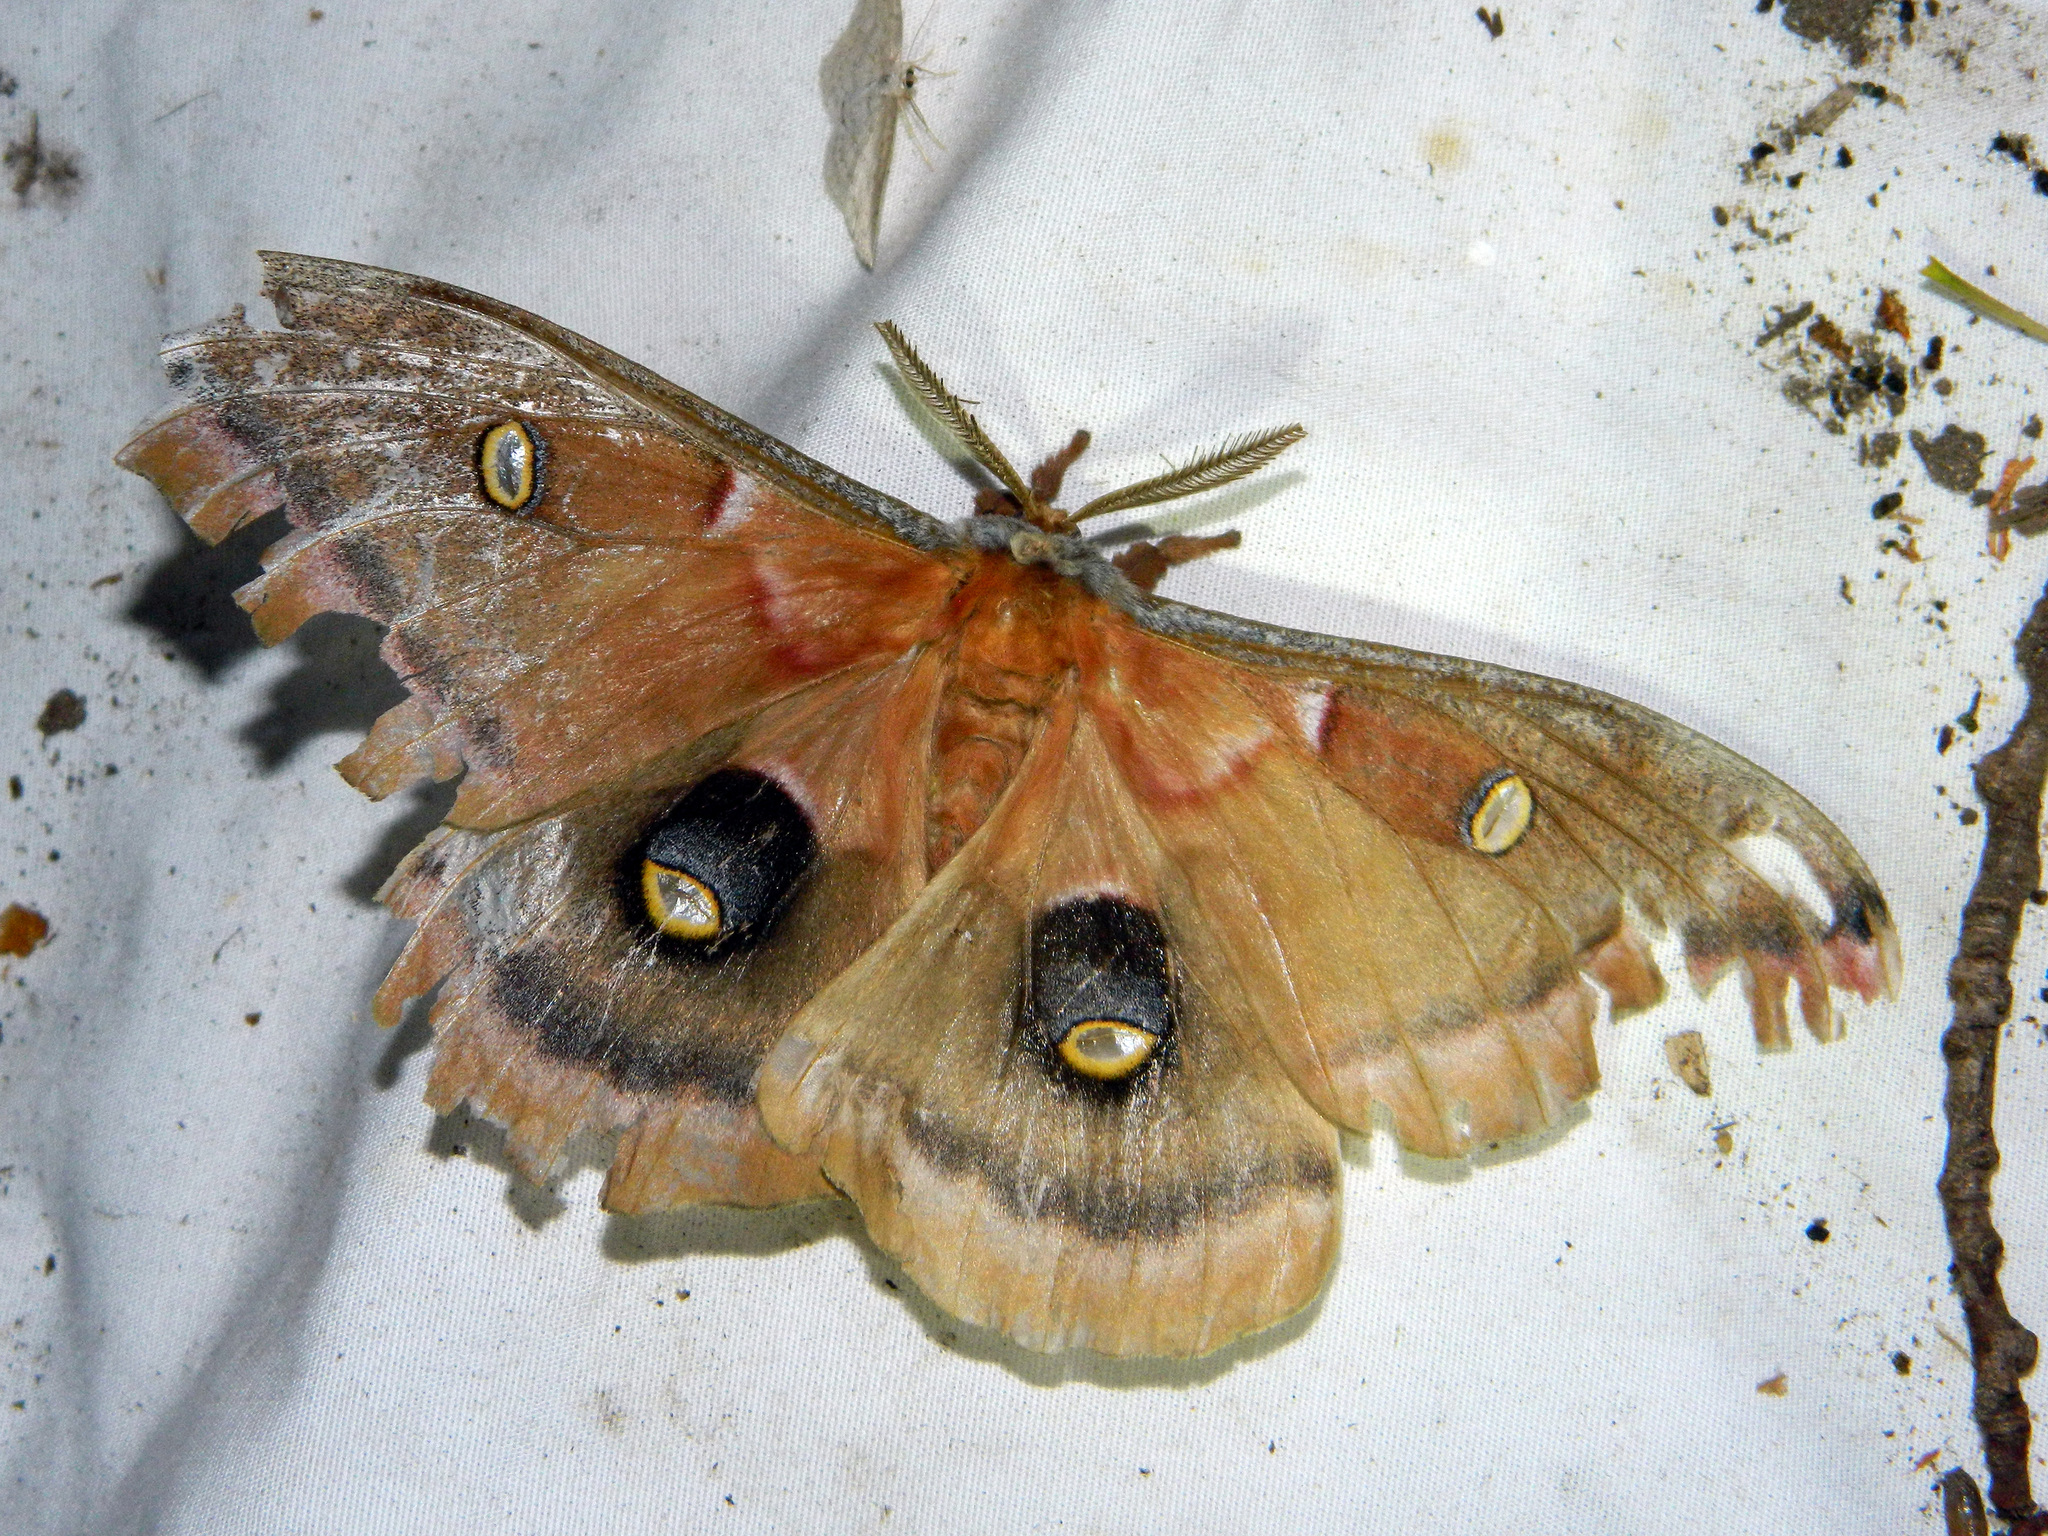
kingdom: Animalia
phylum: Arthropoda
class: Insecta
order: Lepidoptera
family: Saturniidae
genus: Antheraea
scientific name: Antheraea polyphemus
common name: Polyphemus moth
